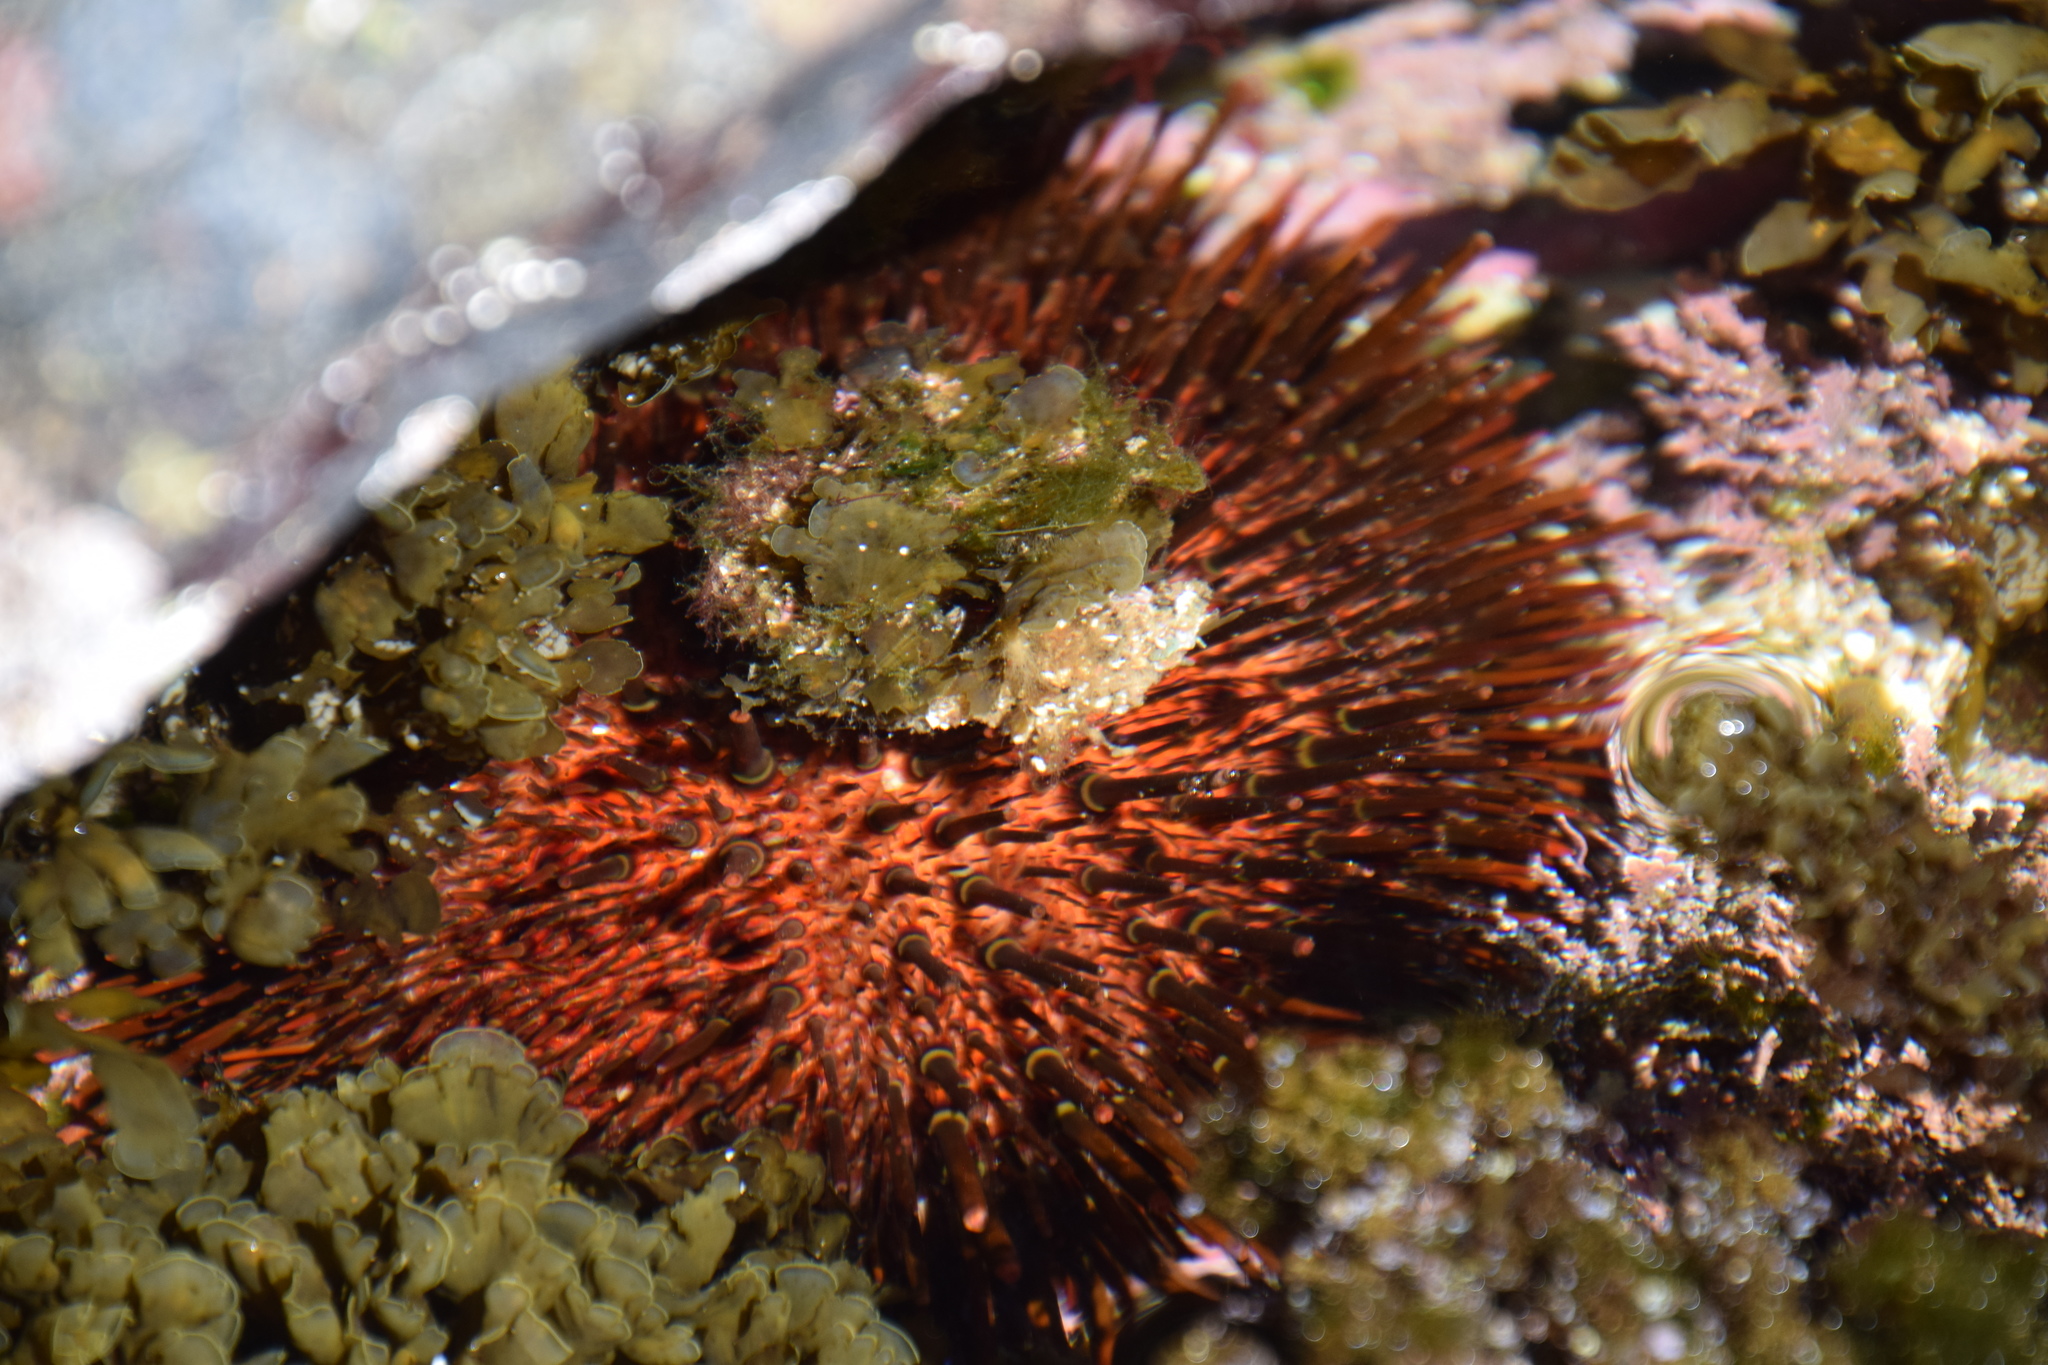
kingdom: Animalia
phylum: Echinodermata
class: Echinoidea
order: Camarodonta
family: Echinometridae
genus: Heliocidaris
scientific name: Heliocidaris tuberculata
